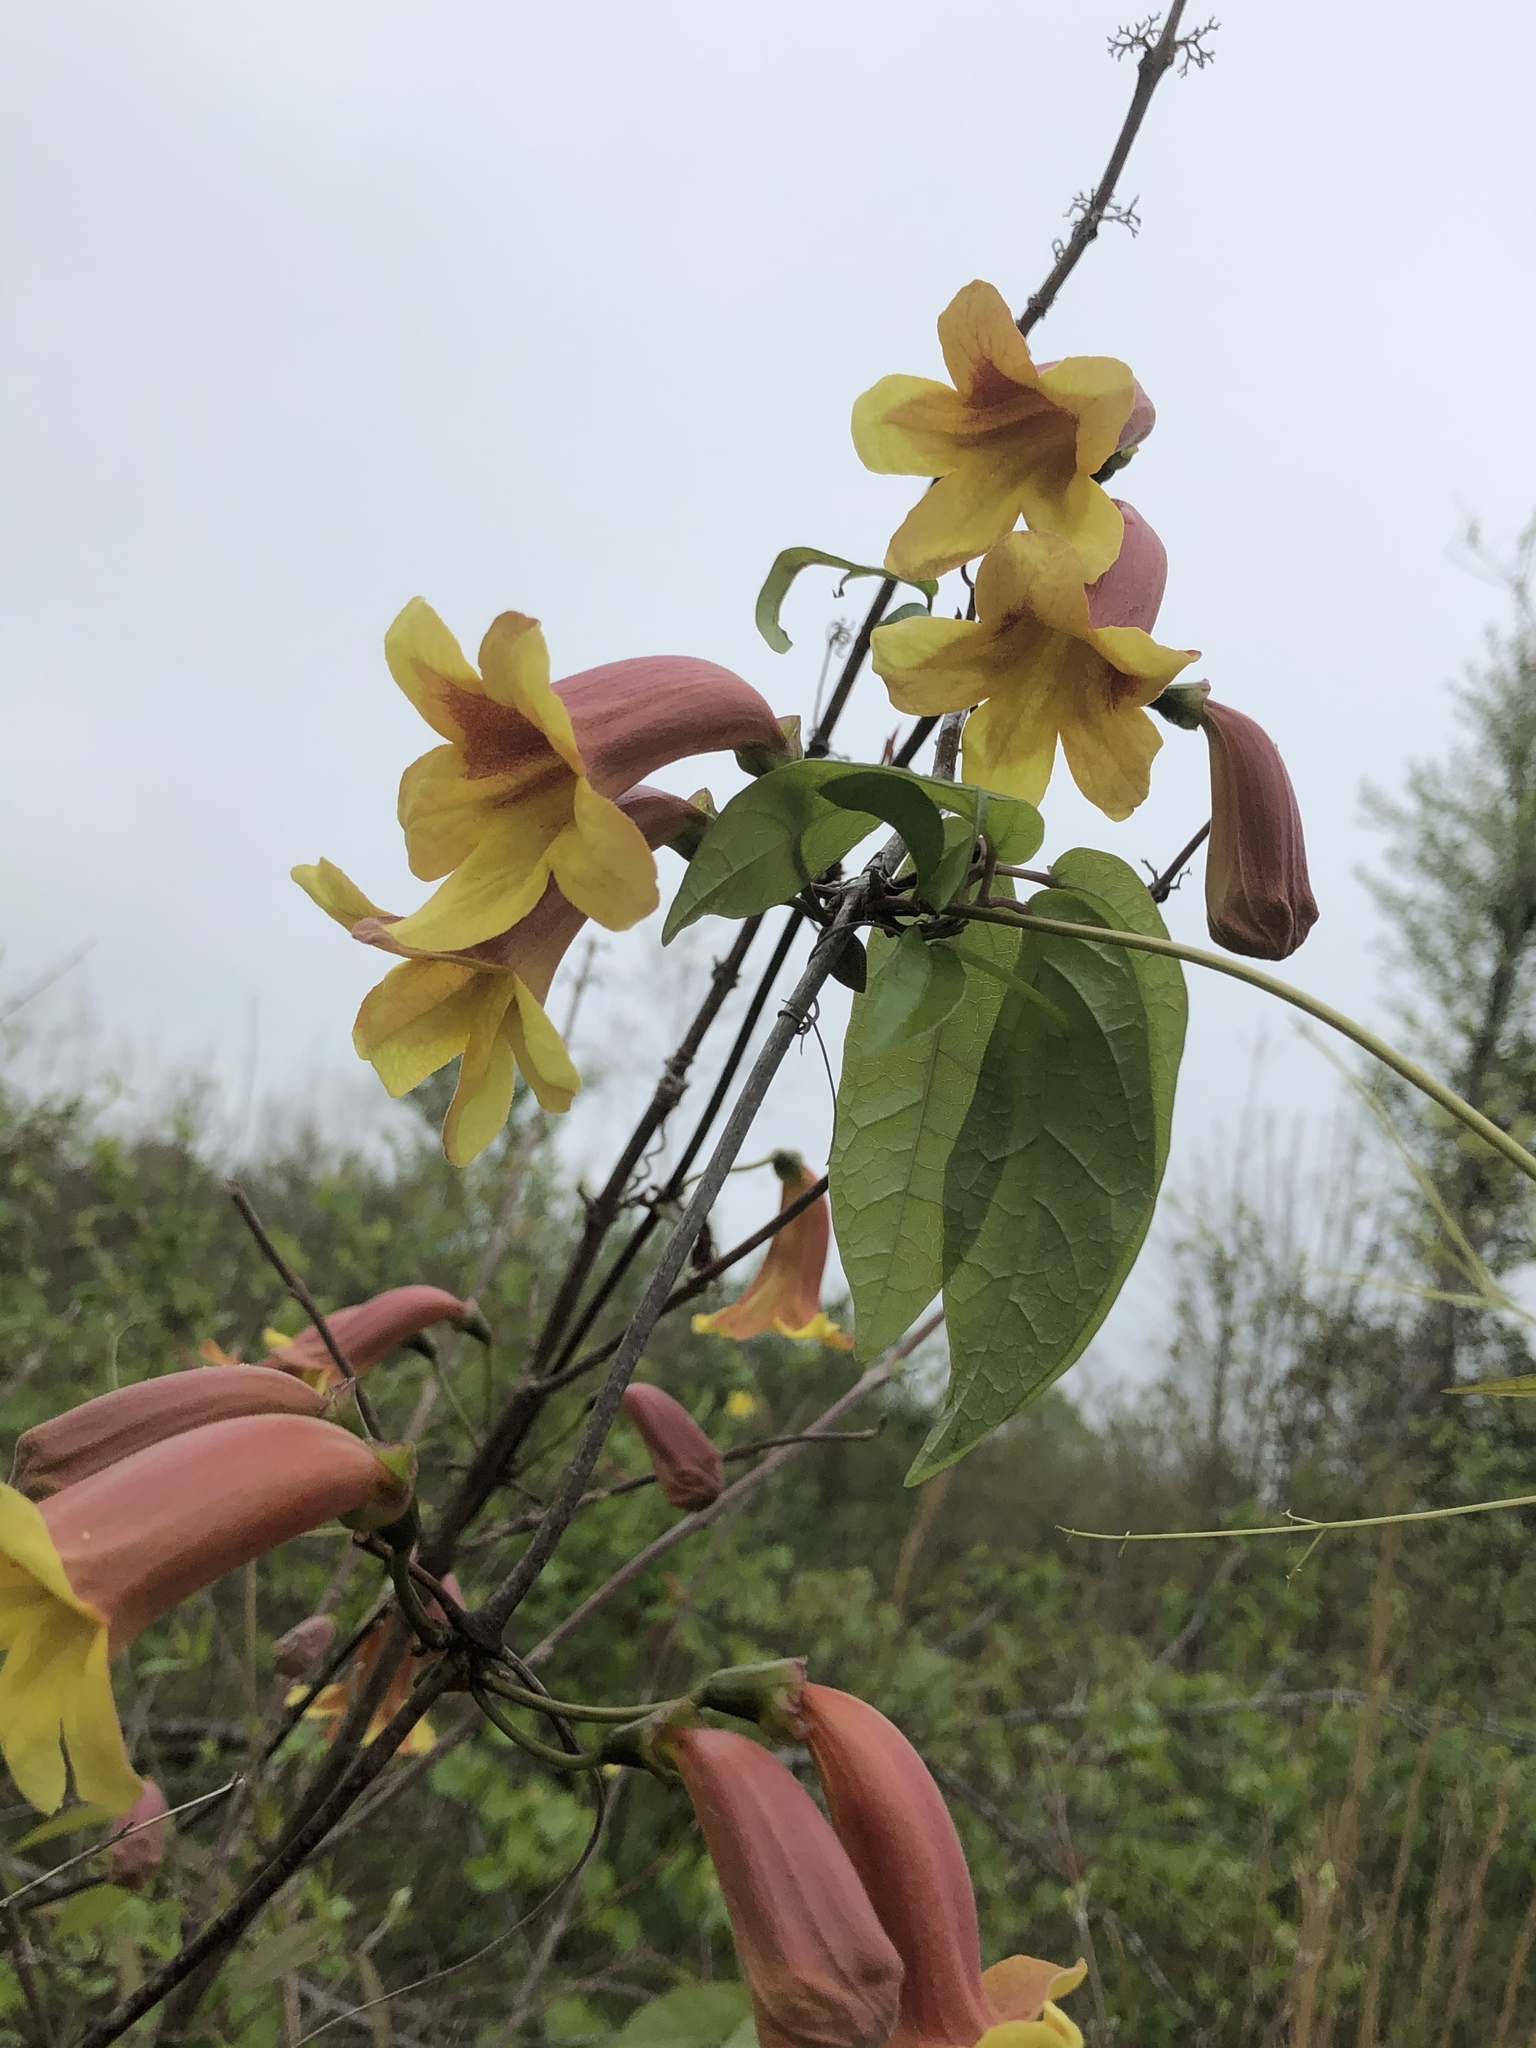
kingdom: Plantae
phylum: Tracheophyta
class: Magnoliopsida
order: Lamiales
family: Bignoniaceae
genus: Bignonia
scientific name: Bignonia capreolata
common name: Crossvine
